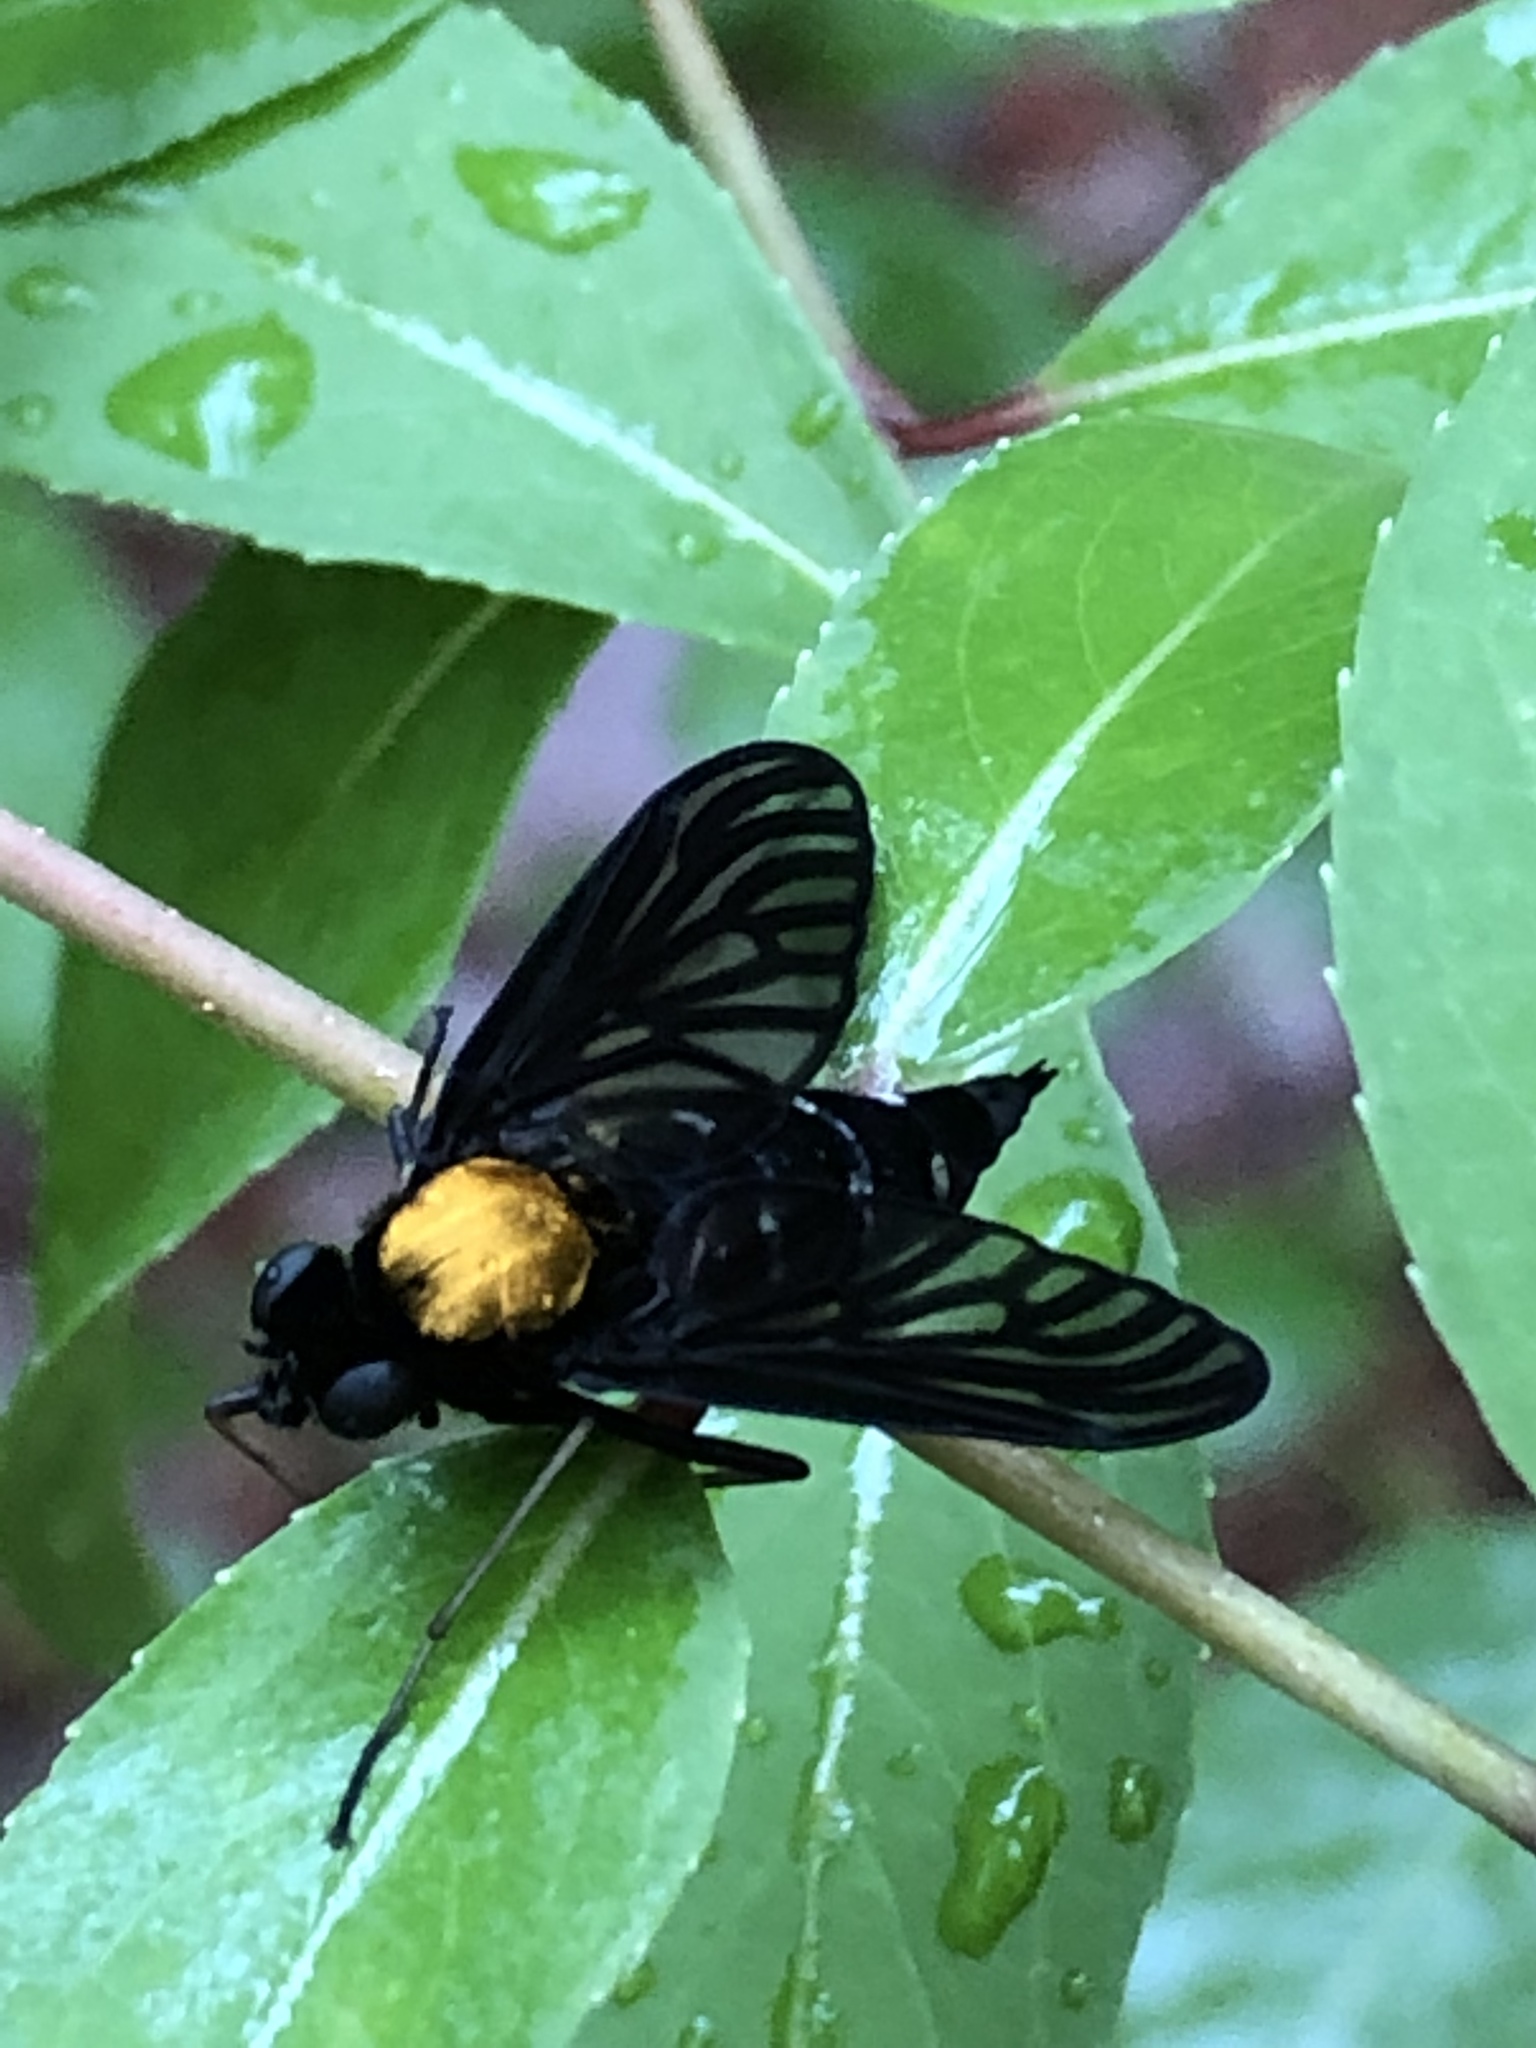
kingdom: Animalia
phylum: Arthropoda
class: Insecta
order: Diptera
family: Rhagionidae
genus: Chrysopilus
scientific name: Chrysopilus thoracicus
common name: Golden-backed snipe fly
